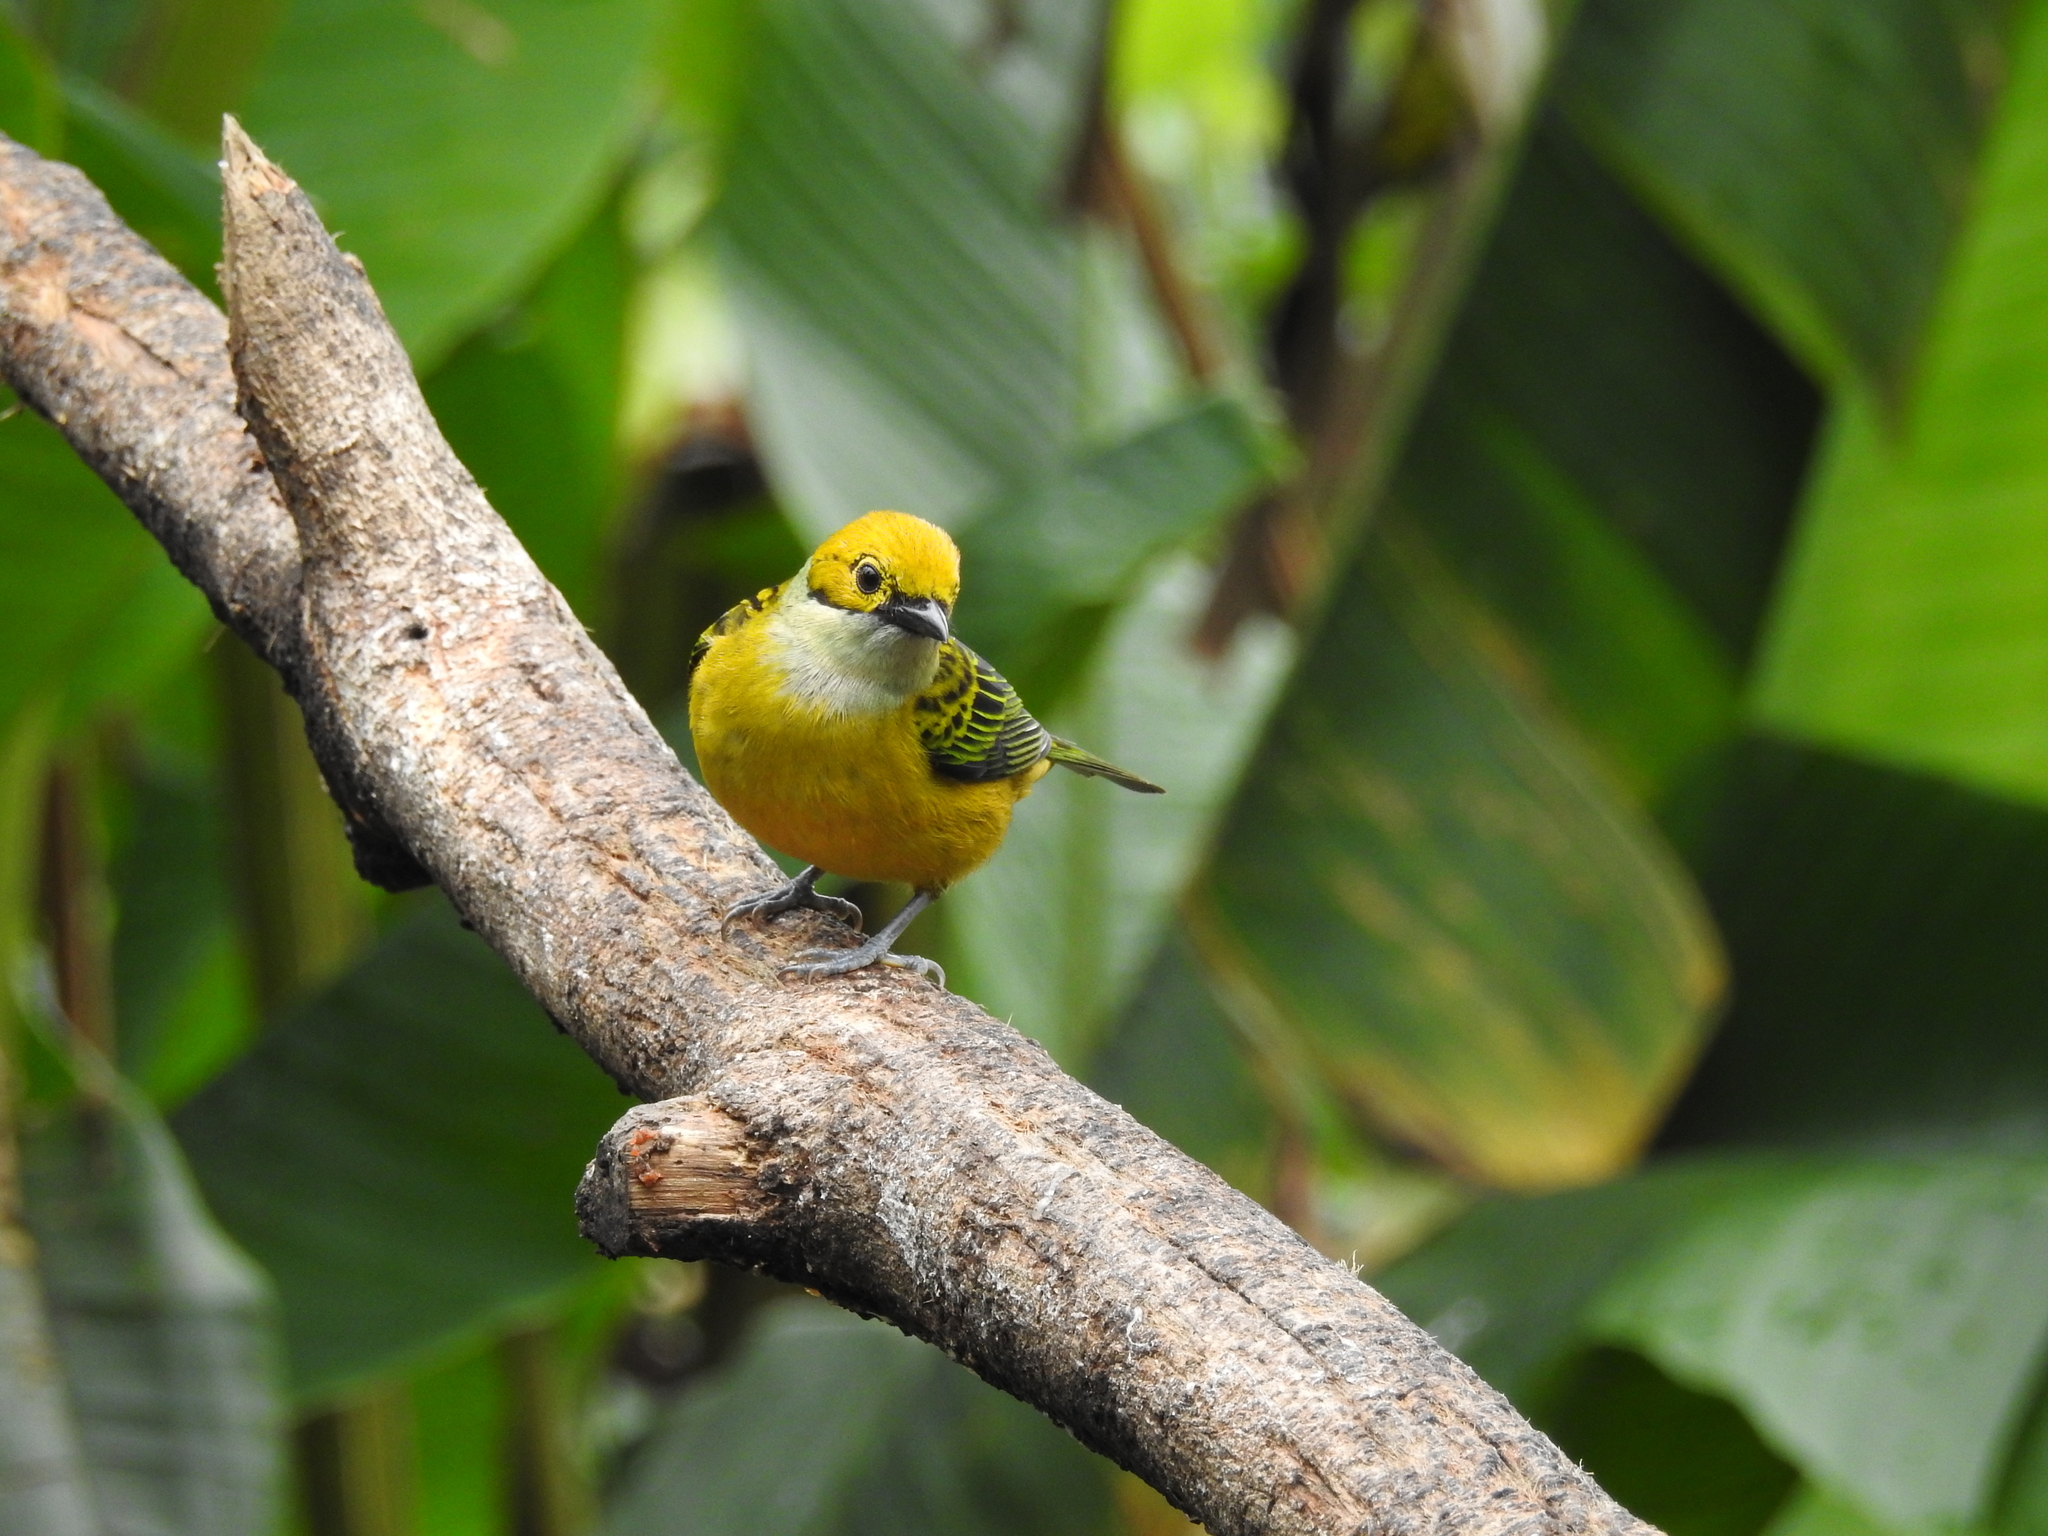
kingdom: Animalia
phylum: Chordata
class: Aves
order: Passeriformes
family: Thraupidae
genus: Tangara
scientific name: Tangara icterocephala
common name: Silver-throated tanager
